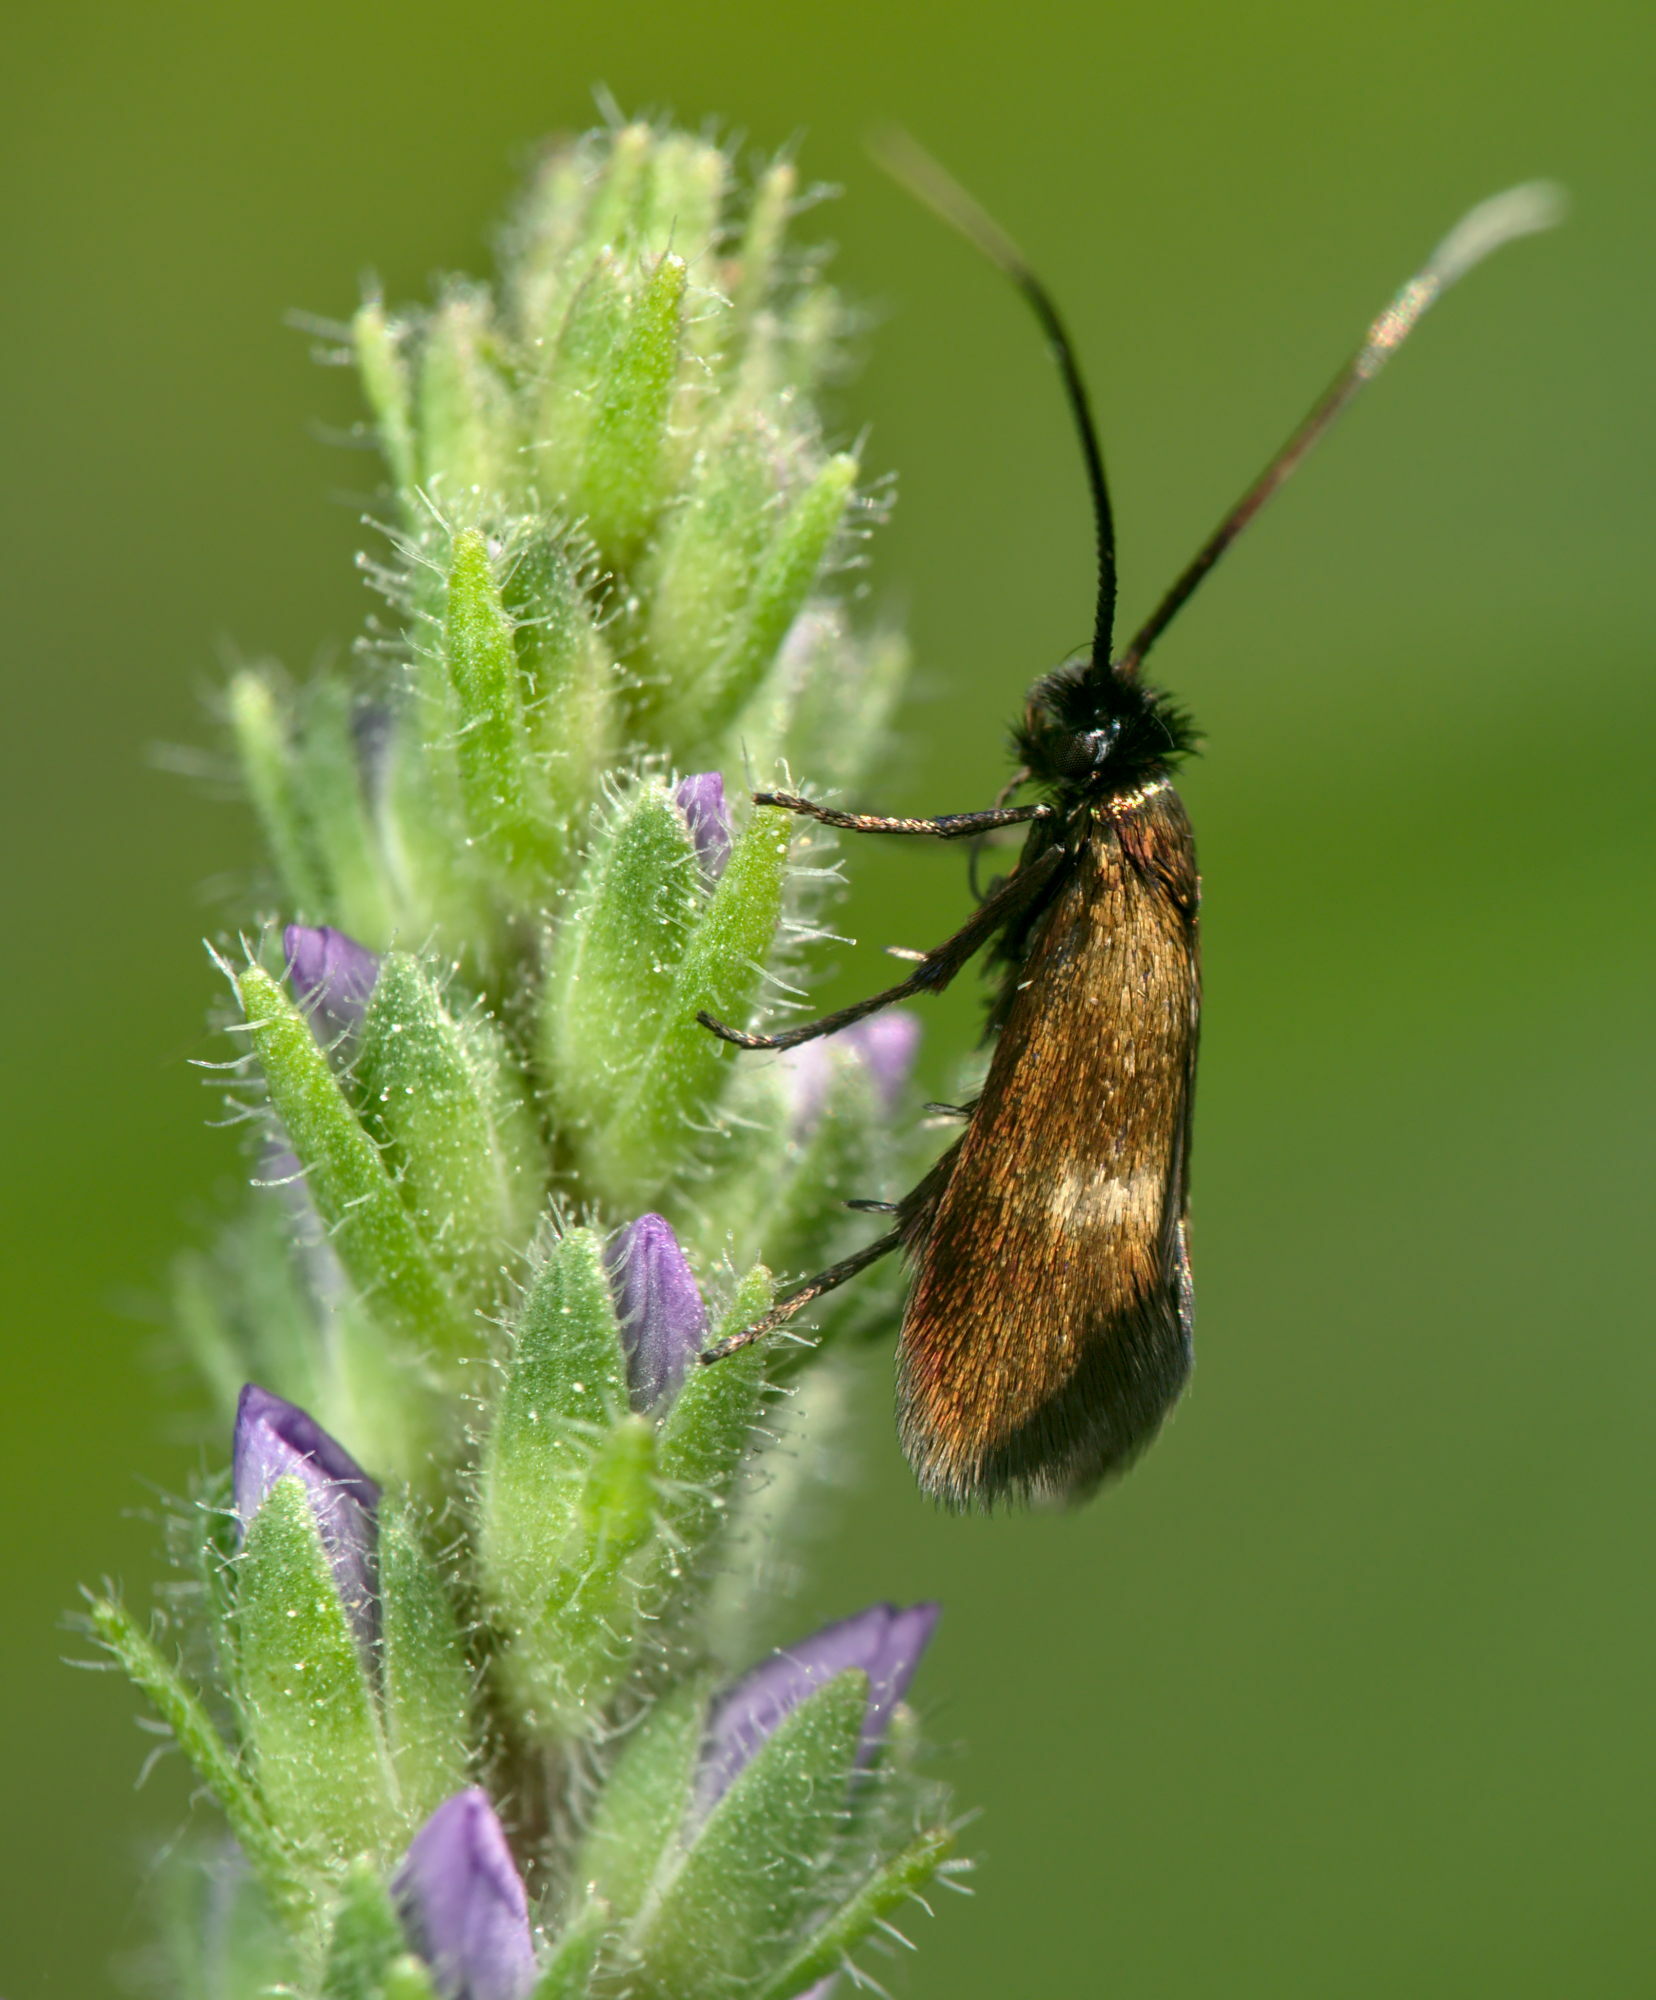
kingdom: Animalia
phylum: Arthropoda
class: Insecta
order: Lepidoptera
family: Adelidae
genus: Cauchas
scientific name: Cauchas fibulella
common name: Little long-horn
